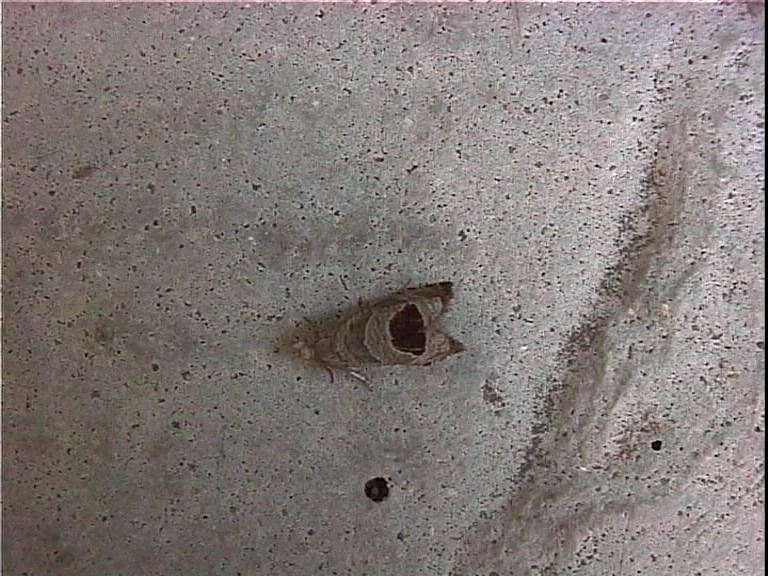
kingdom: Animalia
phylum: Arthropoda
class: Insecta
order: Lepidoptera
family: Tortricidae
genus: Notocelia
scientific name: Notocelia uddmanniana
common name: Bramble shoot moth
